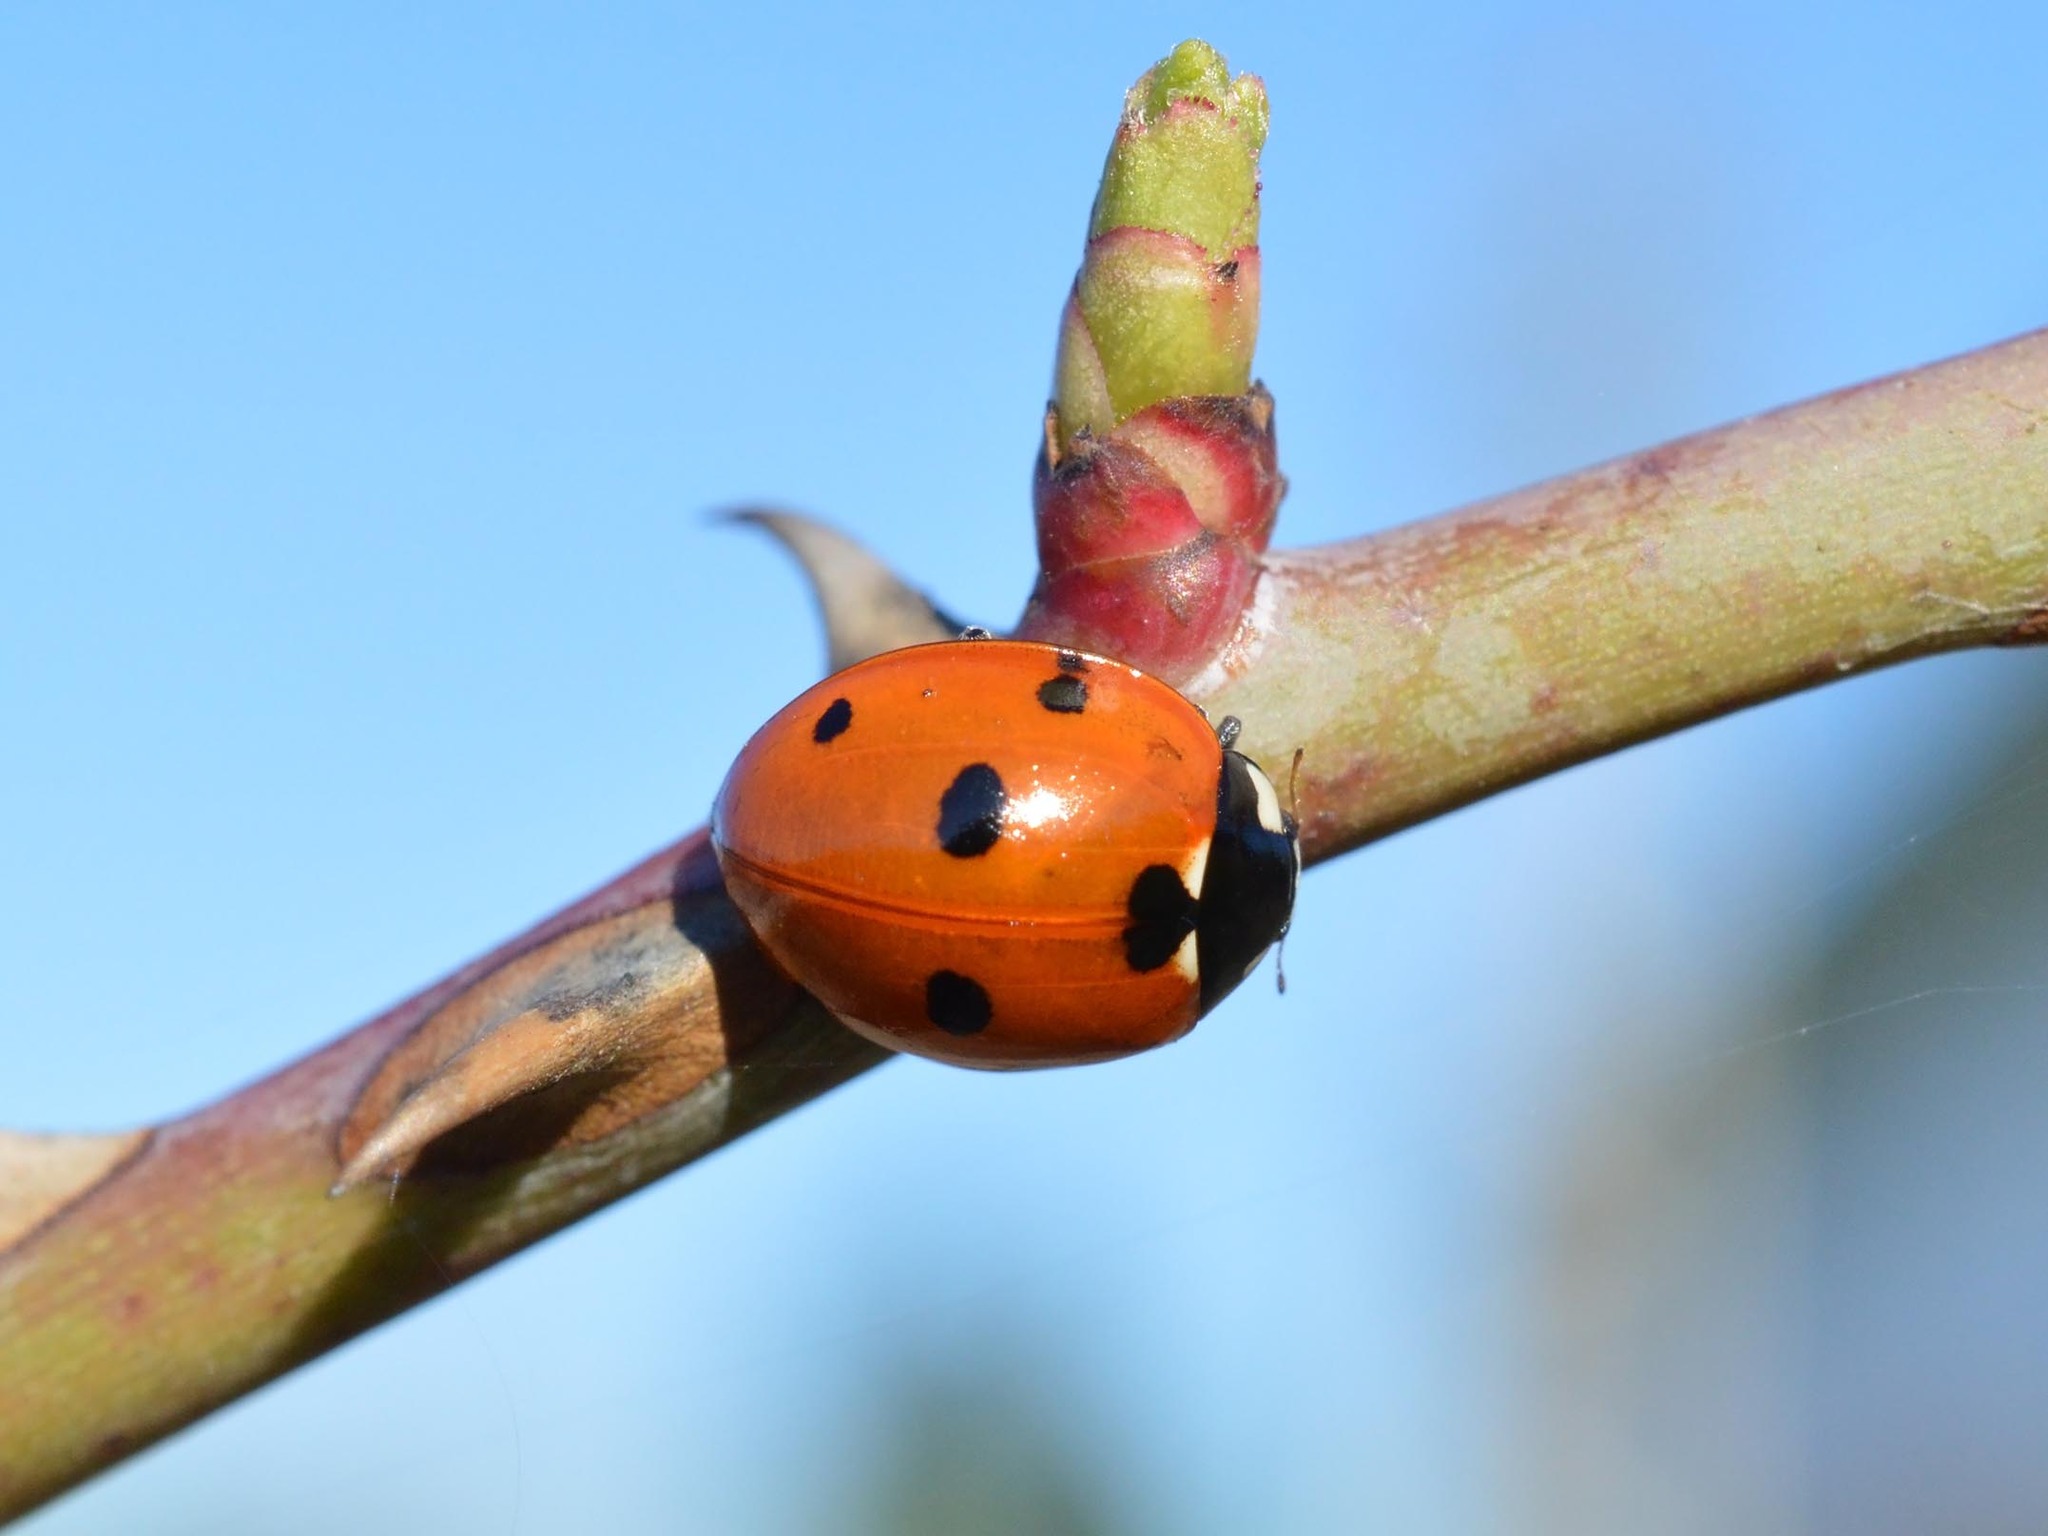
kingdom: Animalia
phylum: Arthropoda
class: Insecta
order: Coleoptera
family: Coccinellidae
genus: Coccinella
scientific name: Coccinella septempunctata
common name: Sevenspotted lady beetle
